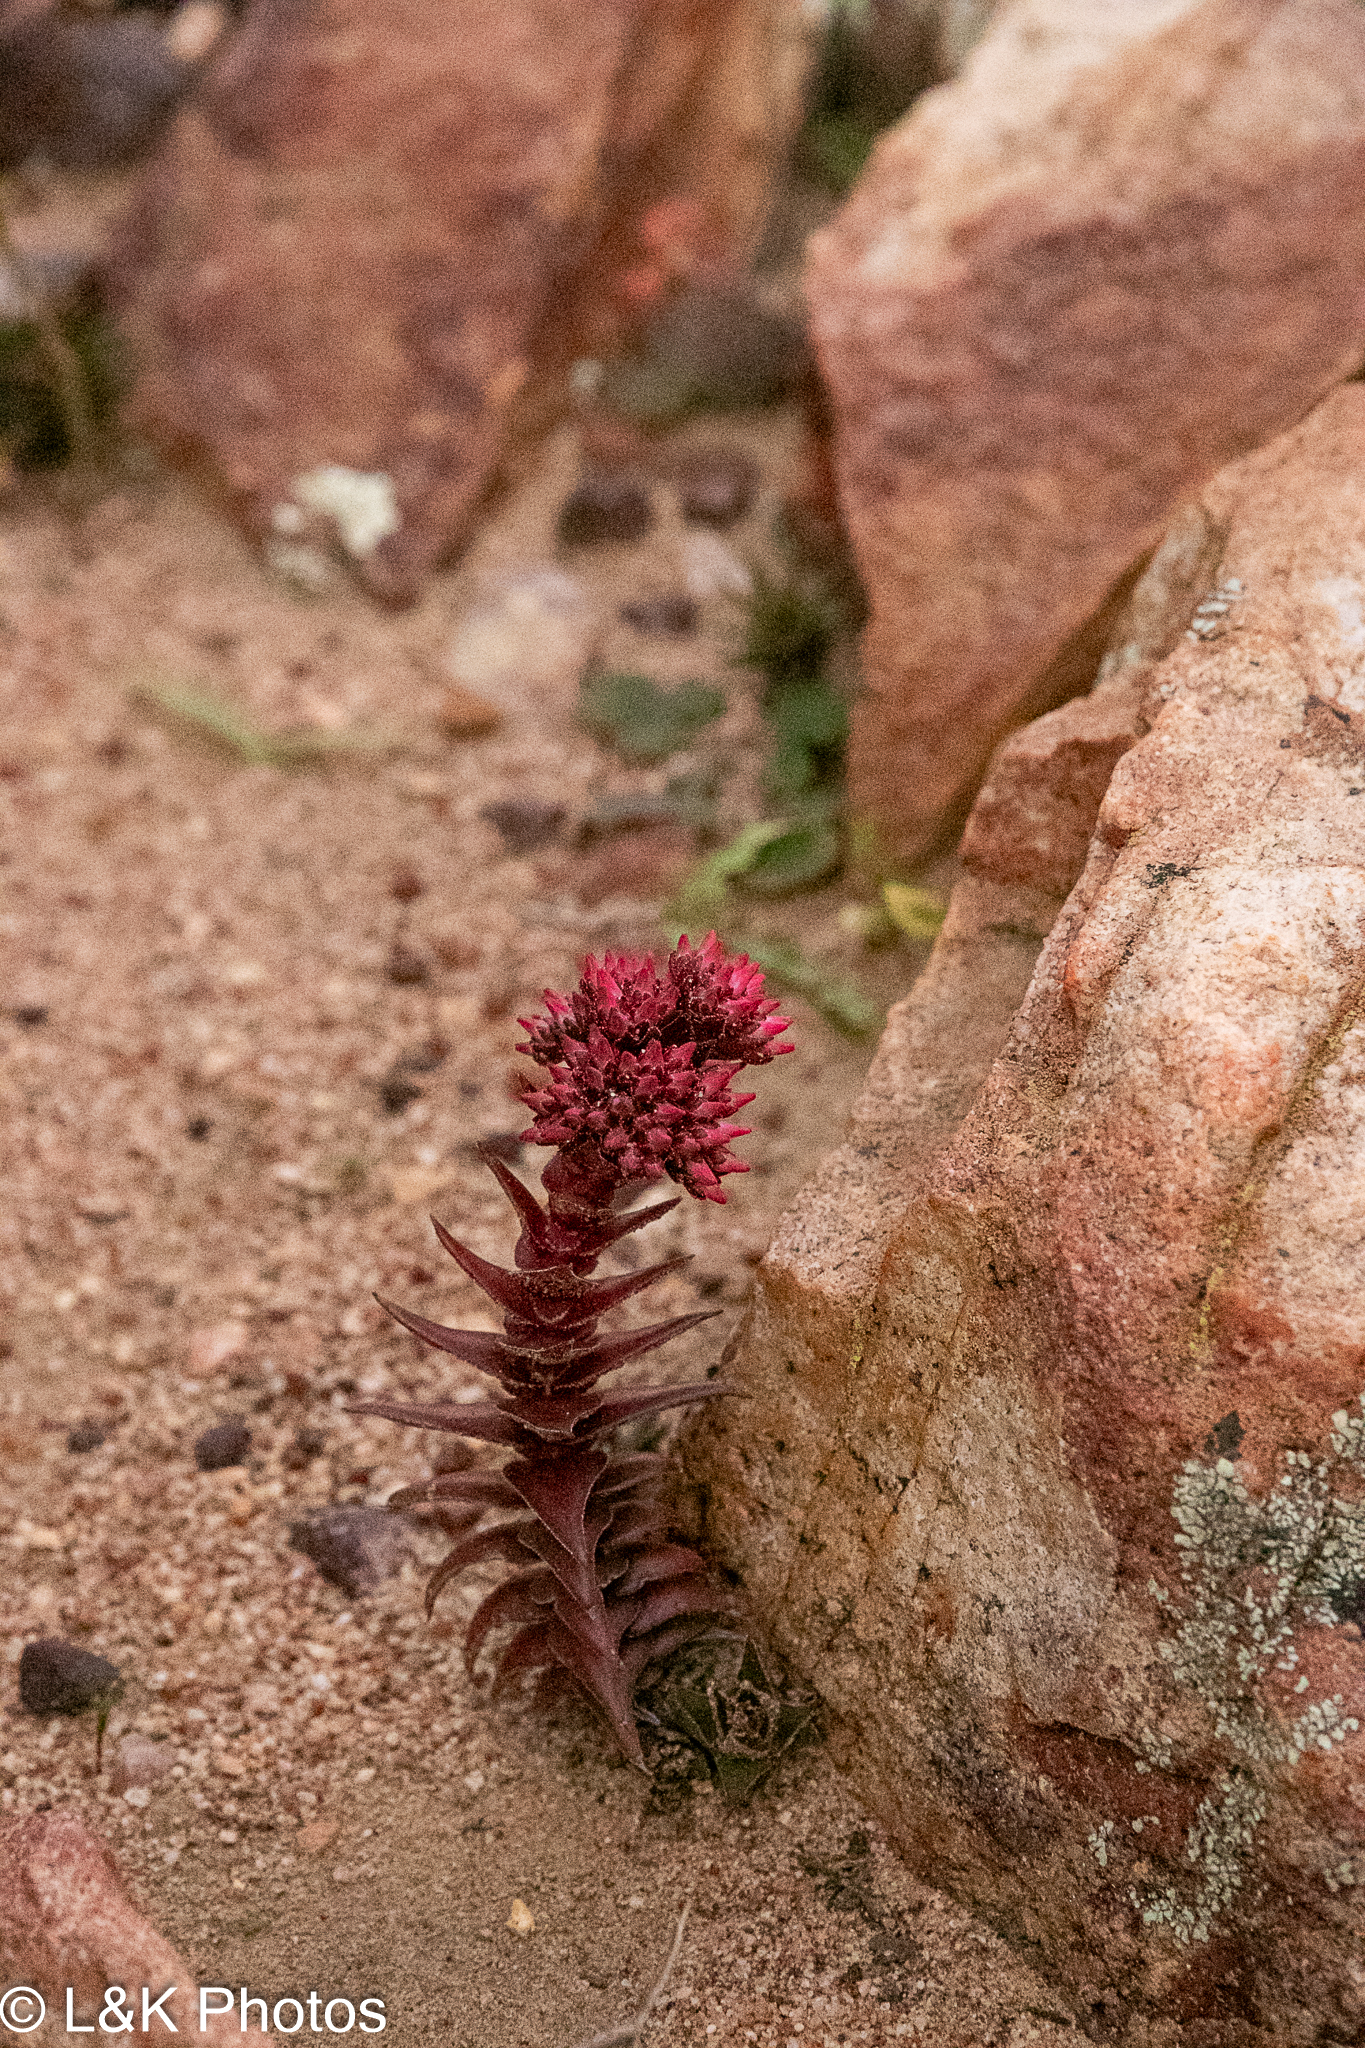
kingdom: Plantae
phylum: Tracheophyta
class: Magnoliopsida
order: Saxifragales
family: Crassulaceae
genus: Crassula
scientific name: Crassula alpestris
